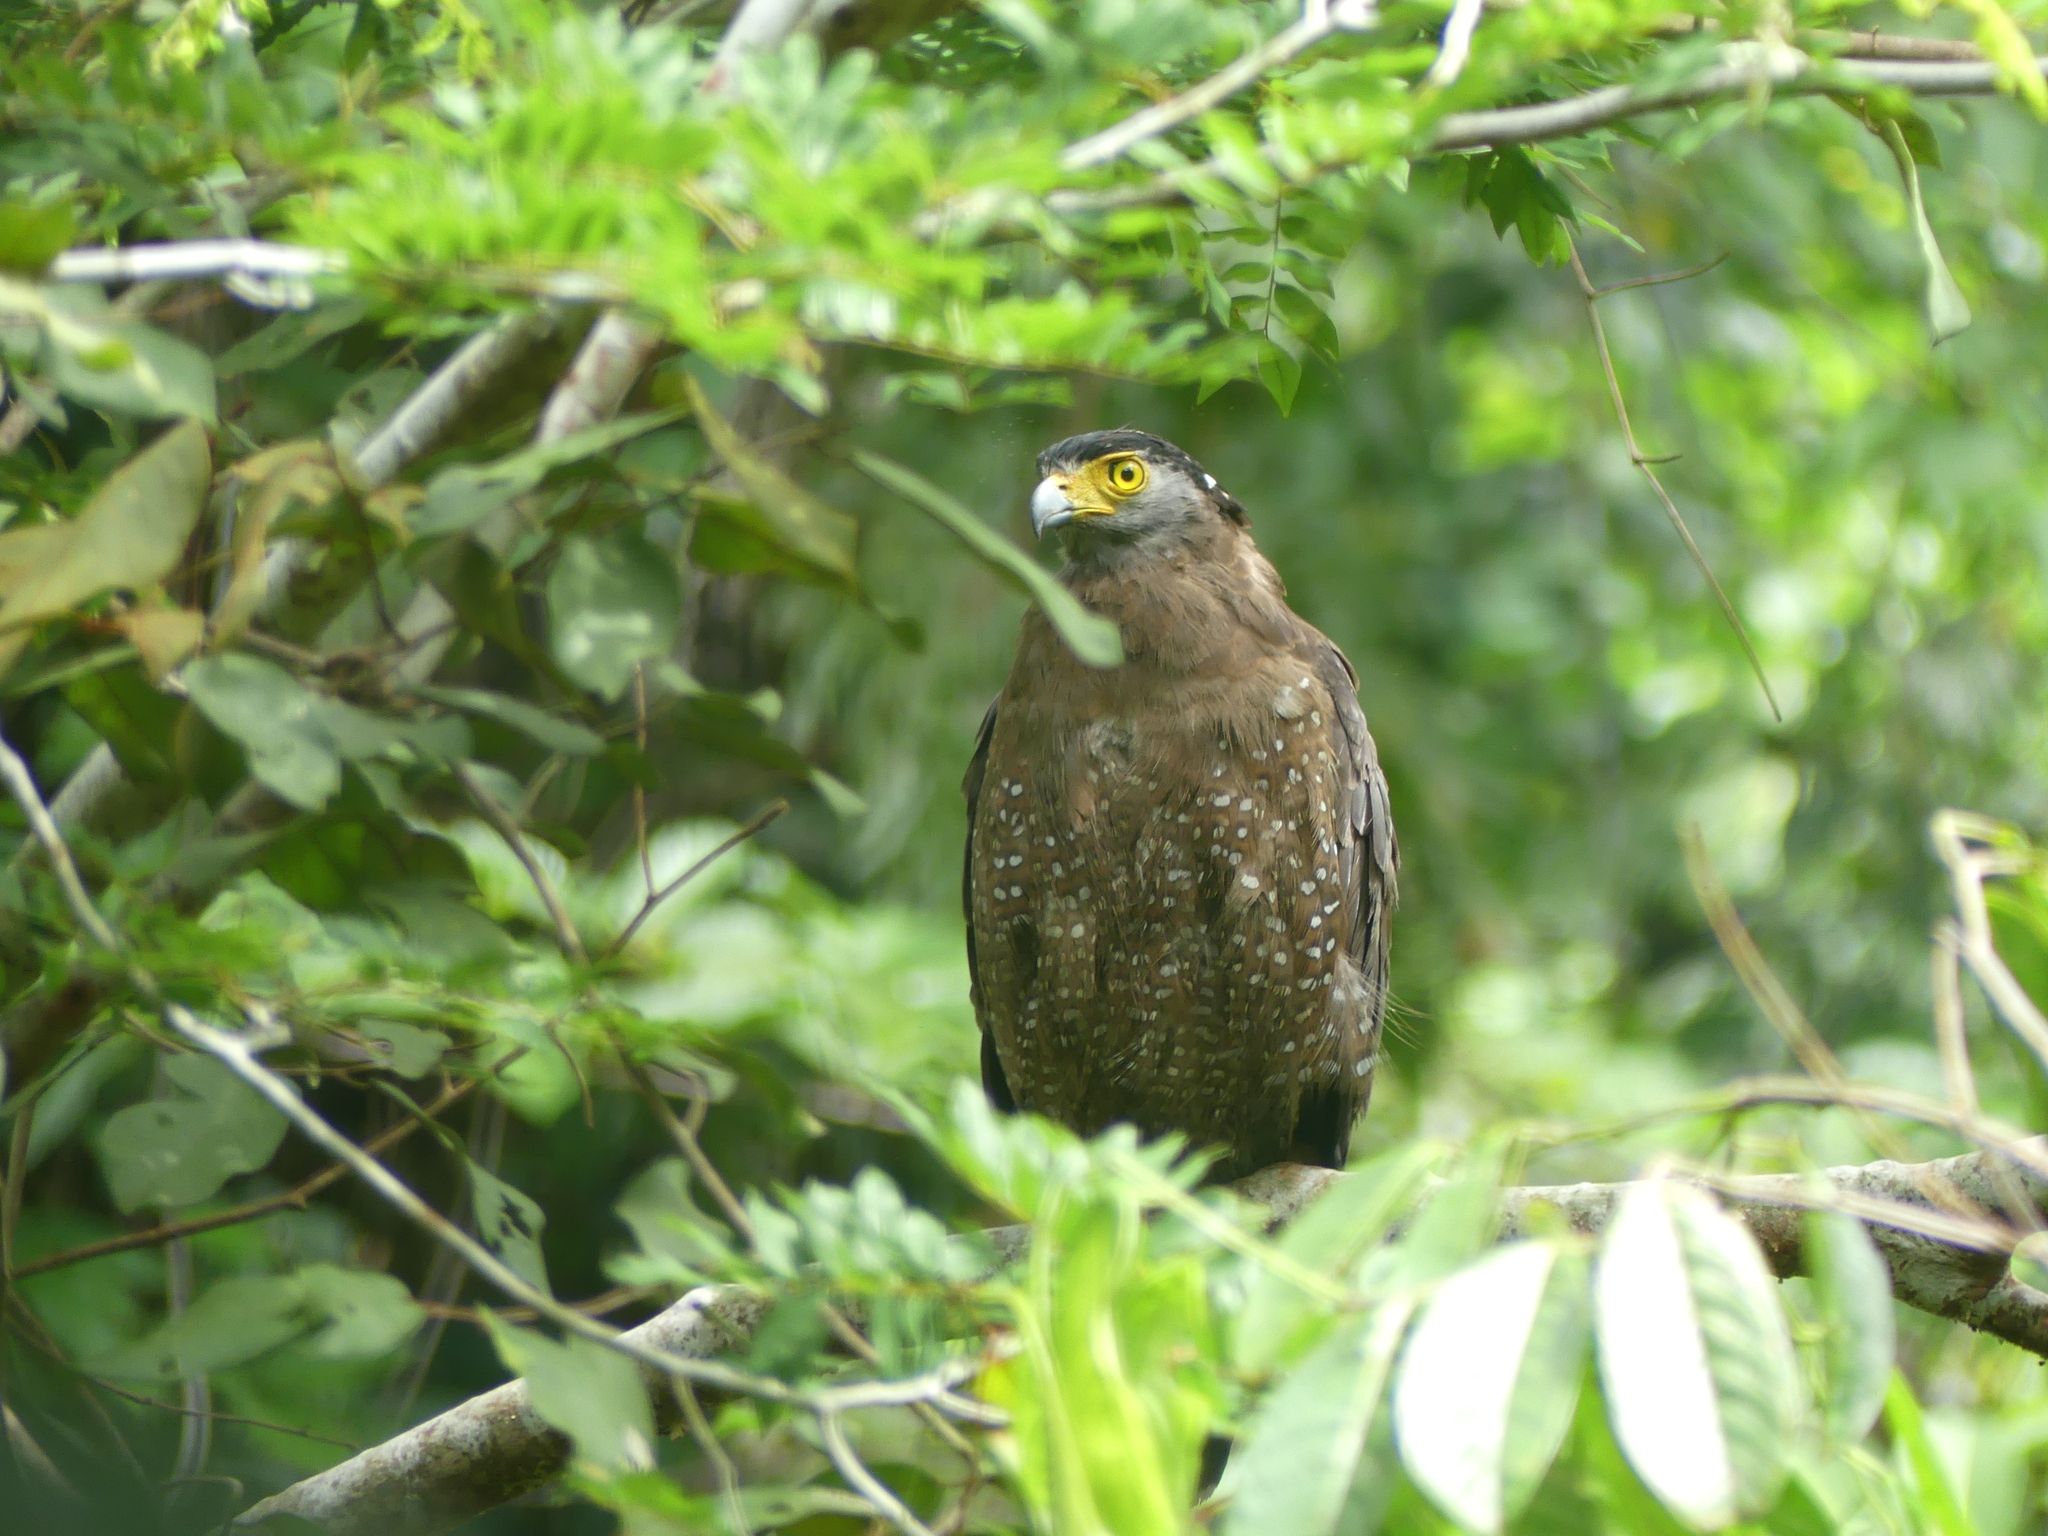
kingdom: Animalia
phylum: Chordata
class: Aves
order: Accipitriformes
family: Accipitridae
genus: Spilornis
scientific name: Spilornis cheela
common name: Crested serpent eagle
